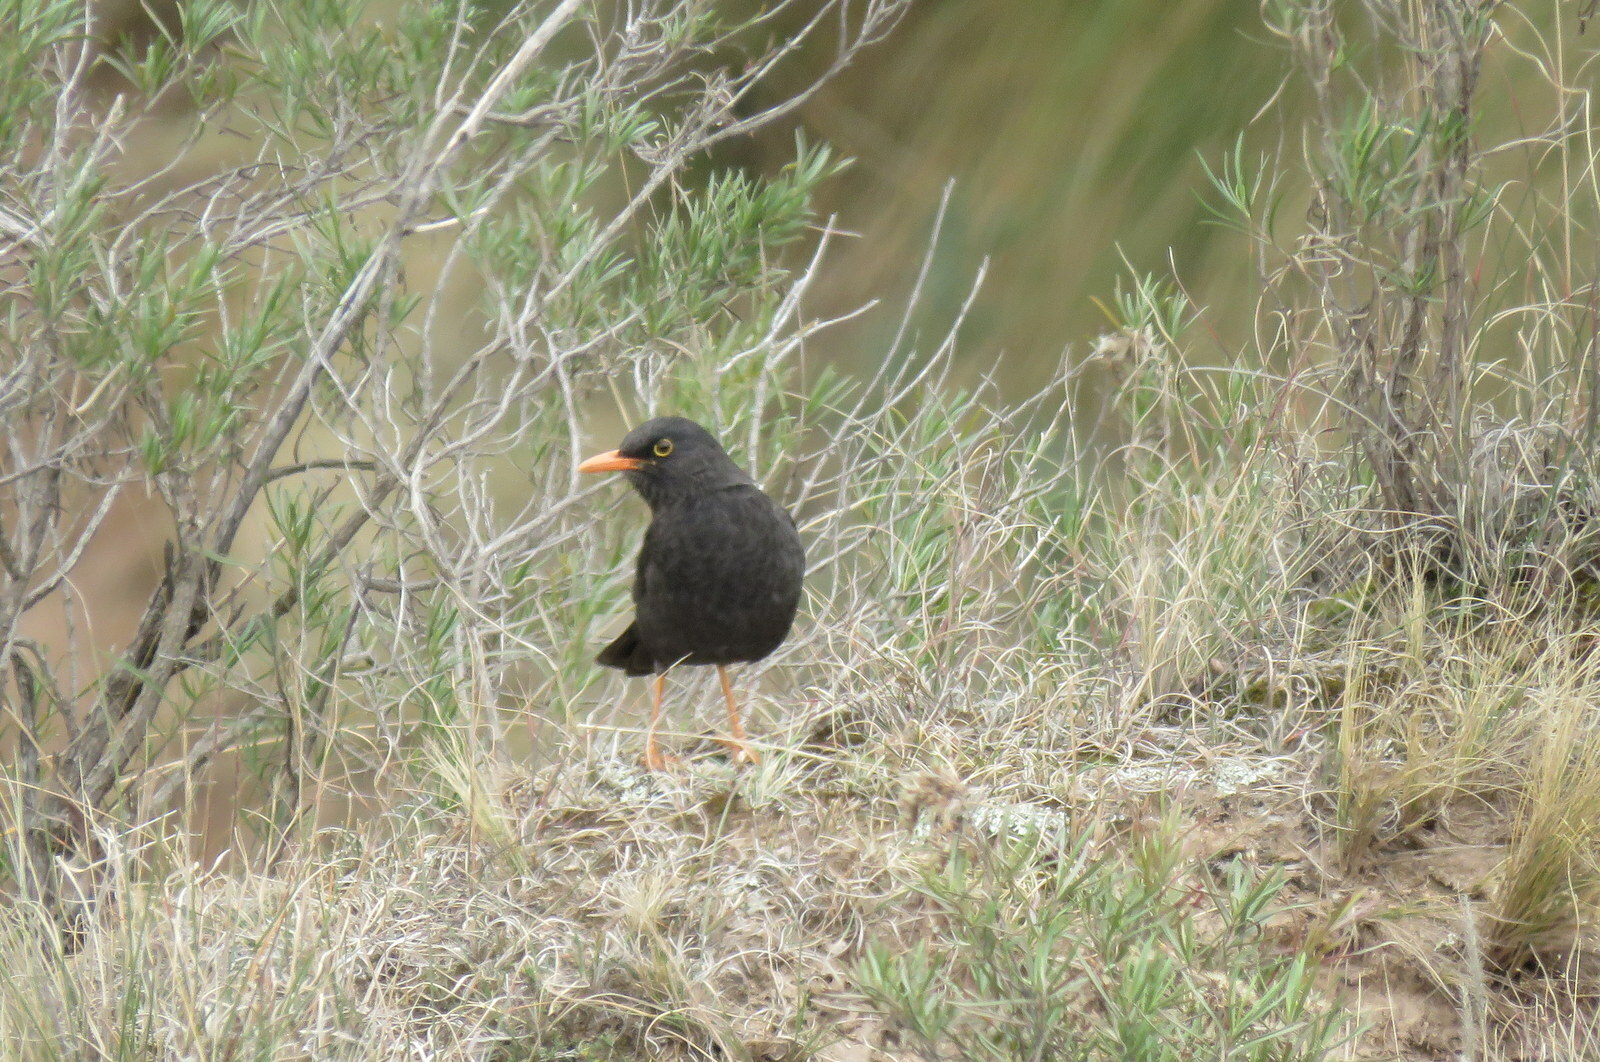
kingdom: Animalia
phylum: Chordata
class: Aves
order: Passeriformes
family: Turdidae
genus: Turdus
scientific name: Turdus chiguanco
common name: Chiguanco thrush
